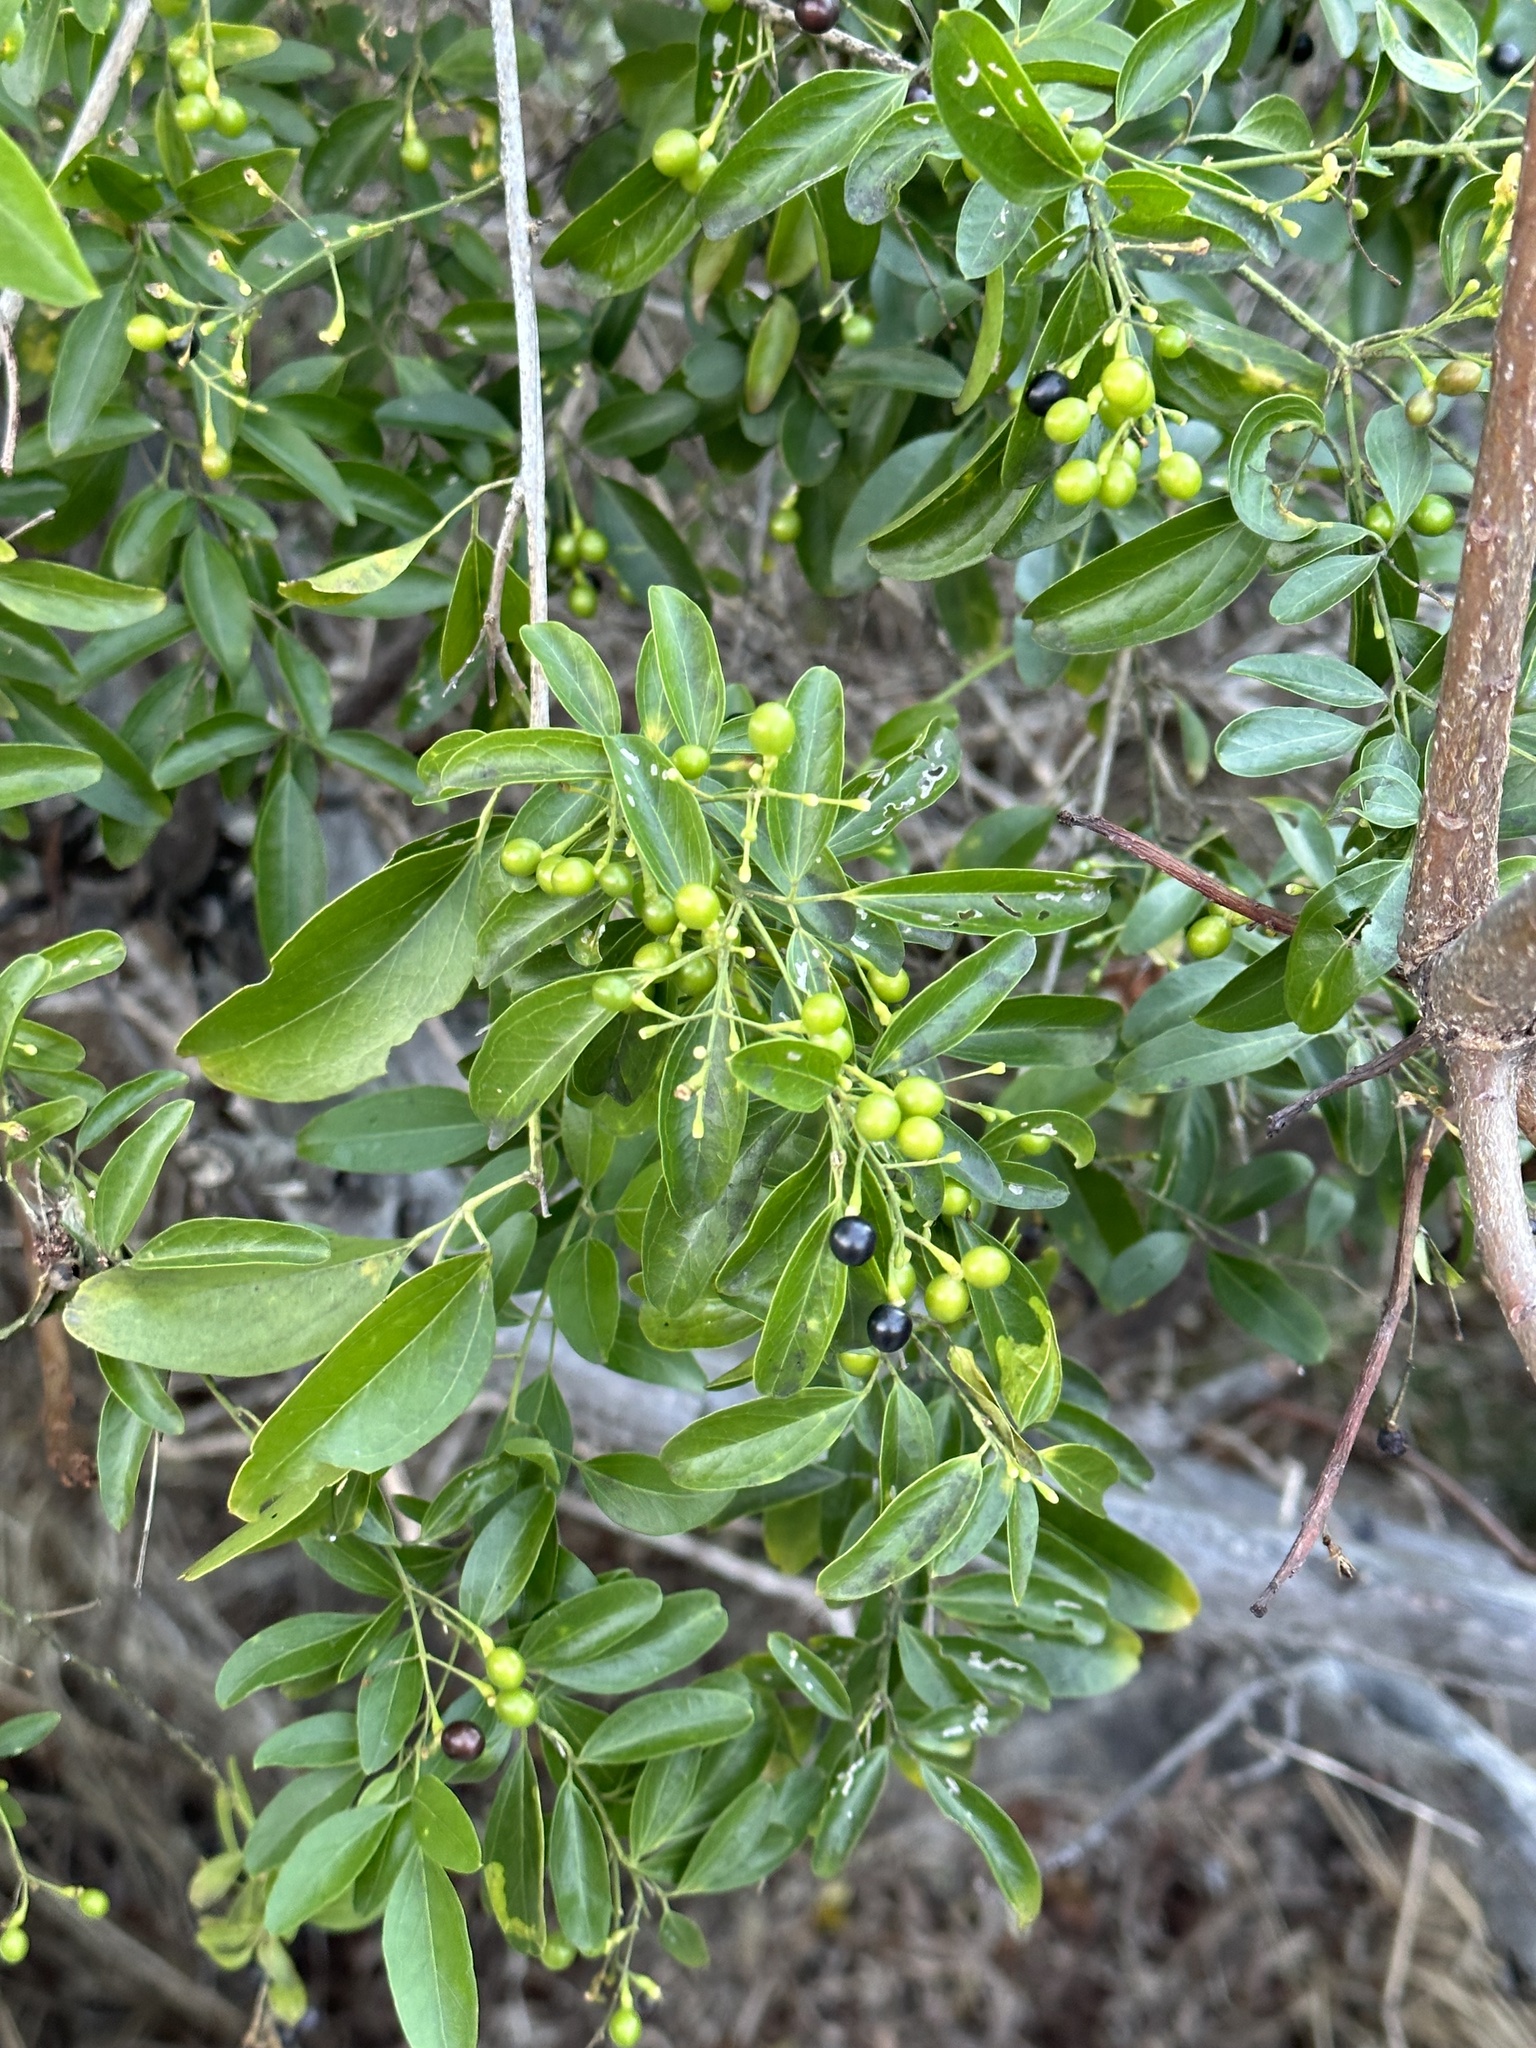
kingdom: Plantae
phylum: Tracheophyta
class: Magnoliopsida
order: Lamiales
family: Oleaceae
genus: Jasminum
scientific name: Jasminum didymum
